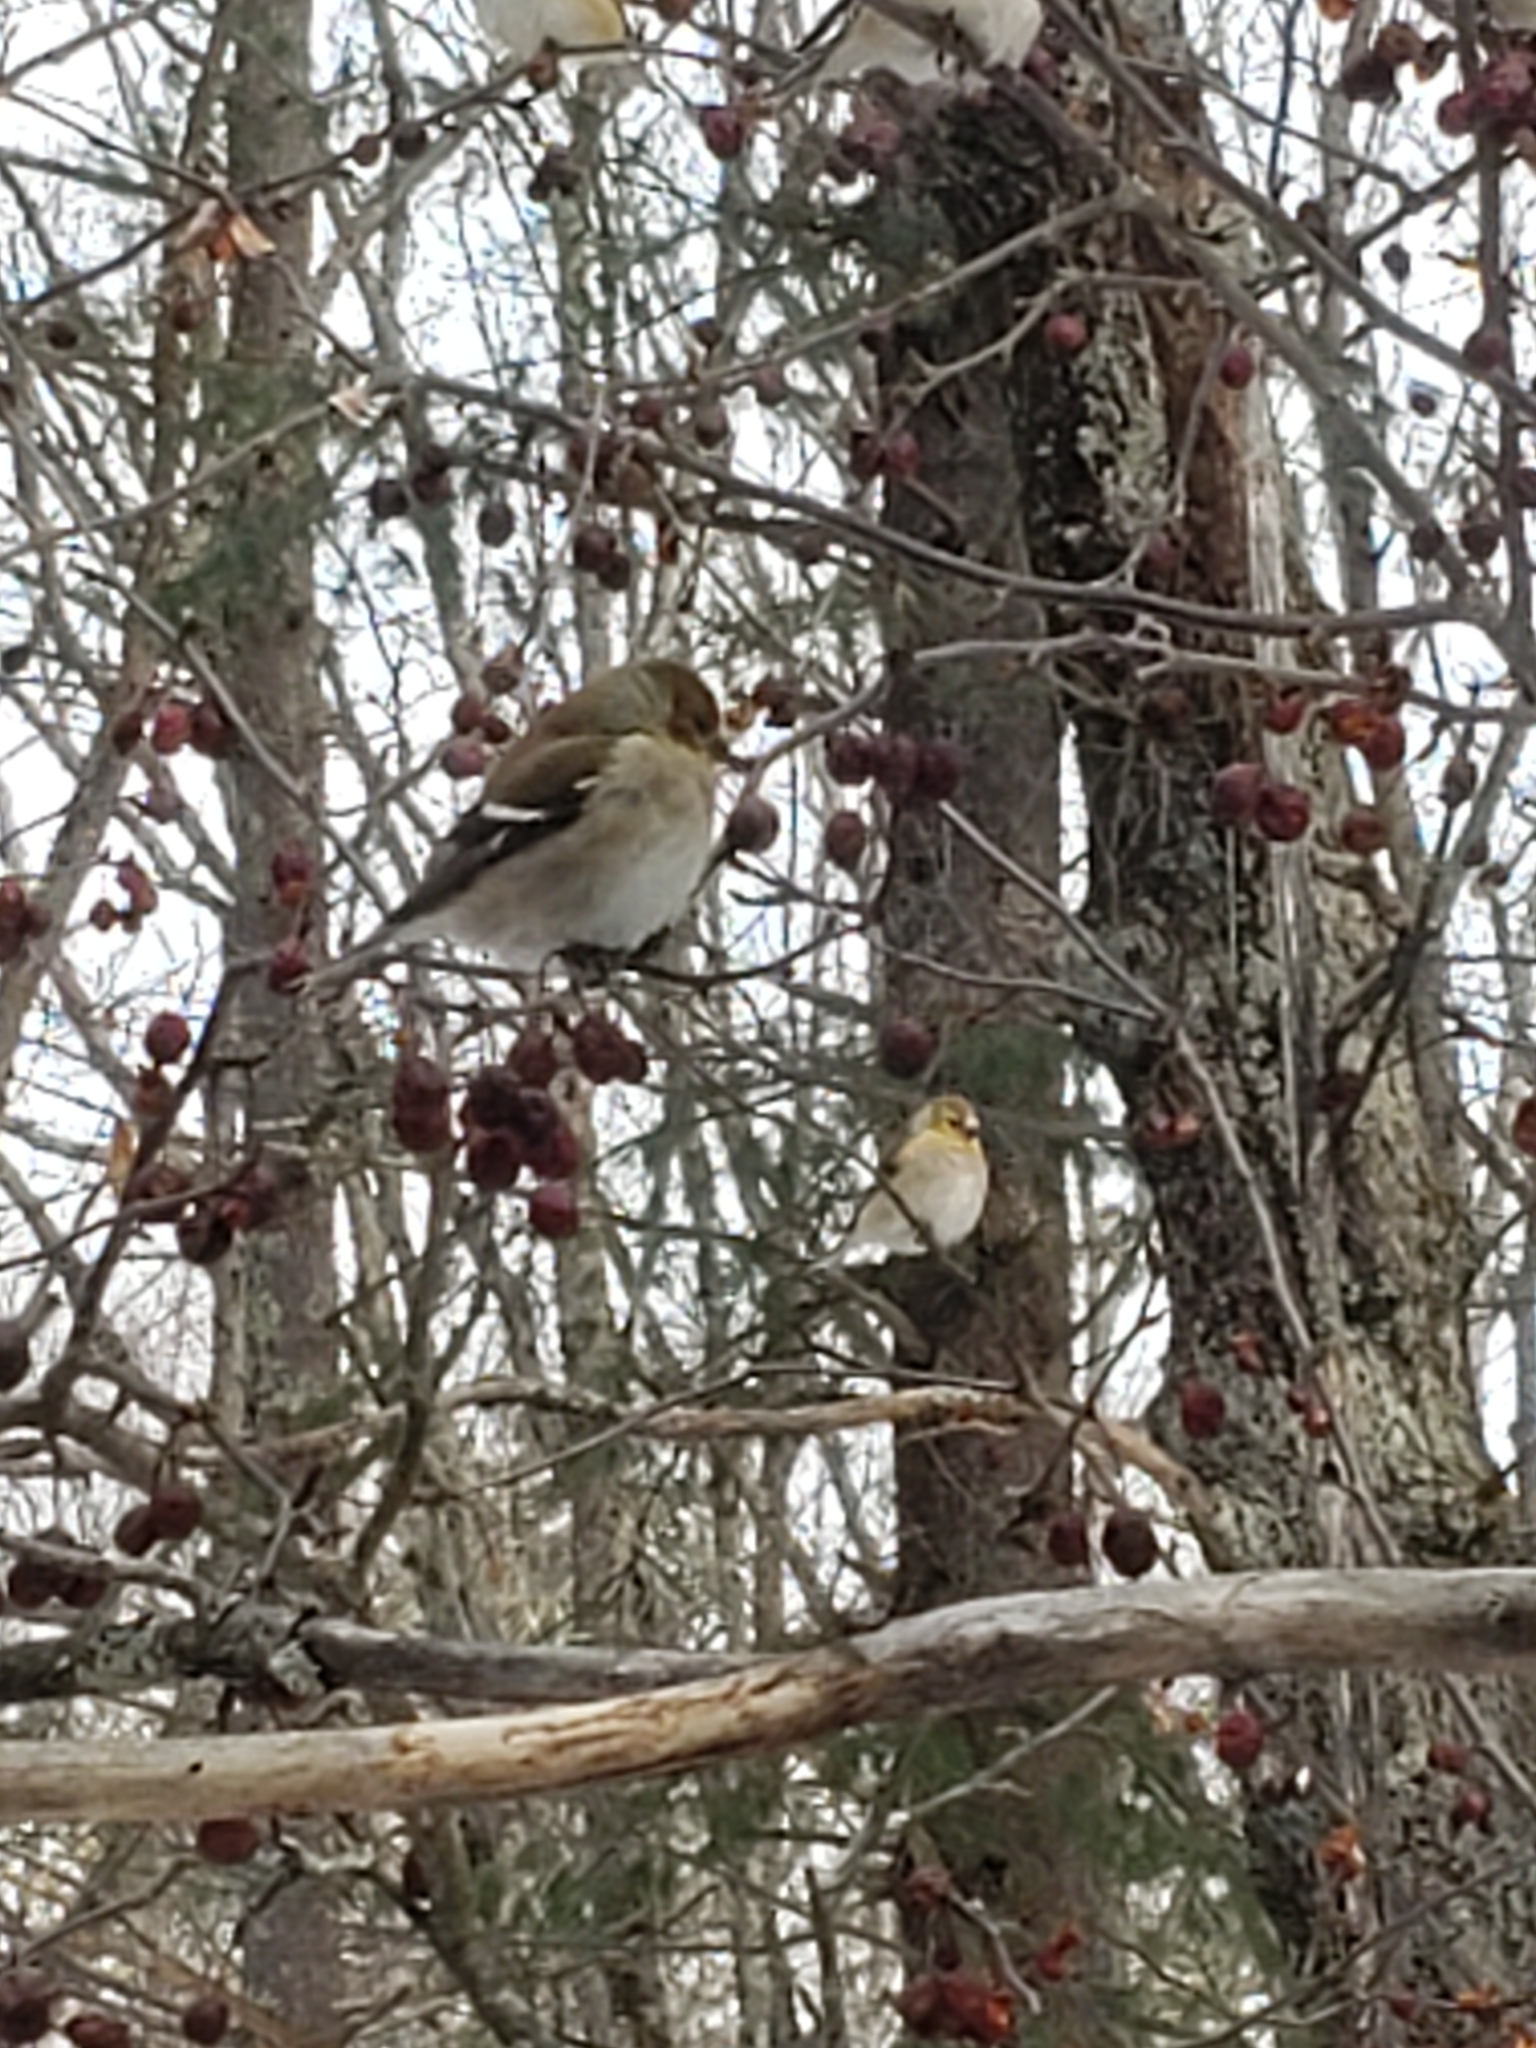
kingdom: Animalia
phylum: Chordata
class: Aves
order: Passeriformes
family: Fringillidae
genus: Spinus
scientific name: Spinus tristis
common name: American goldfinch
